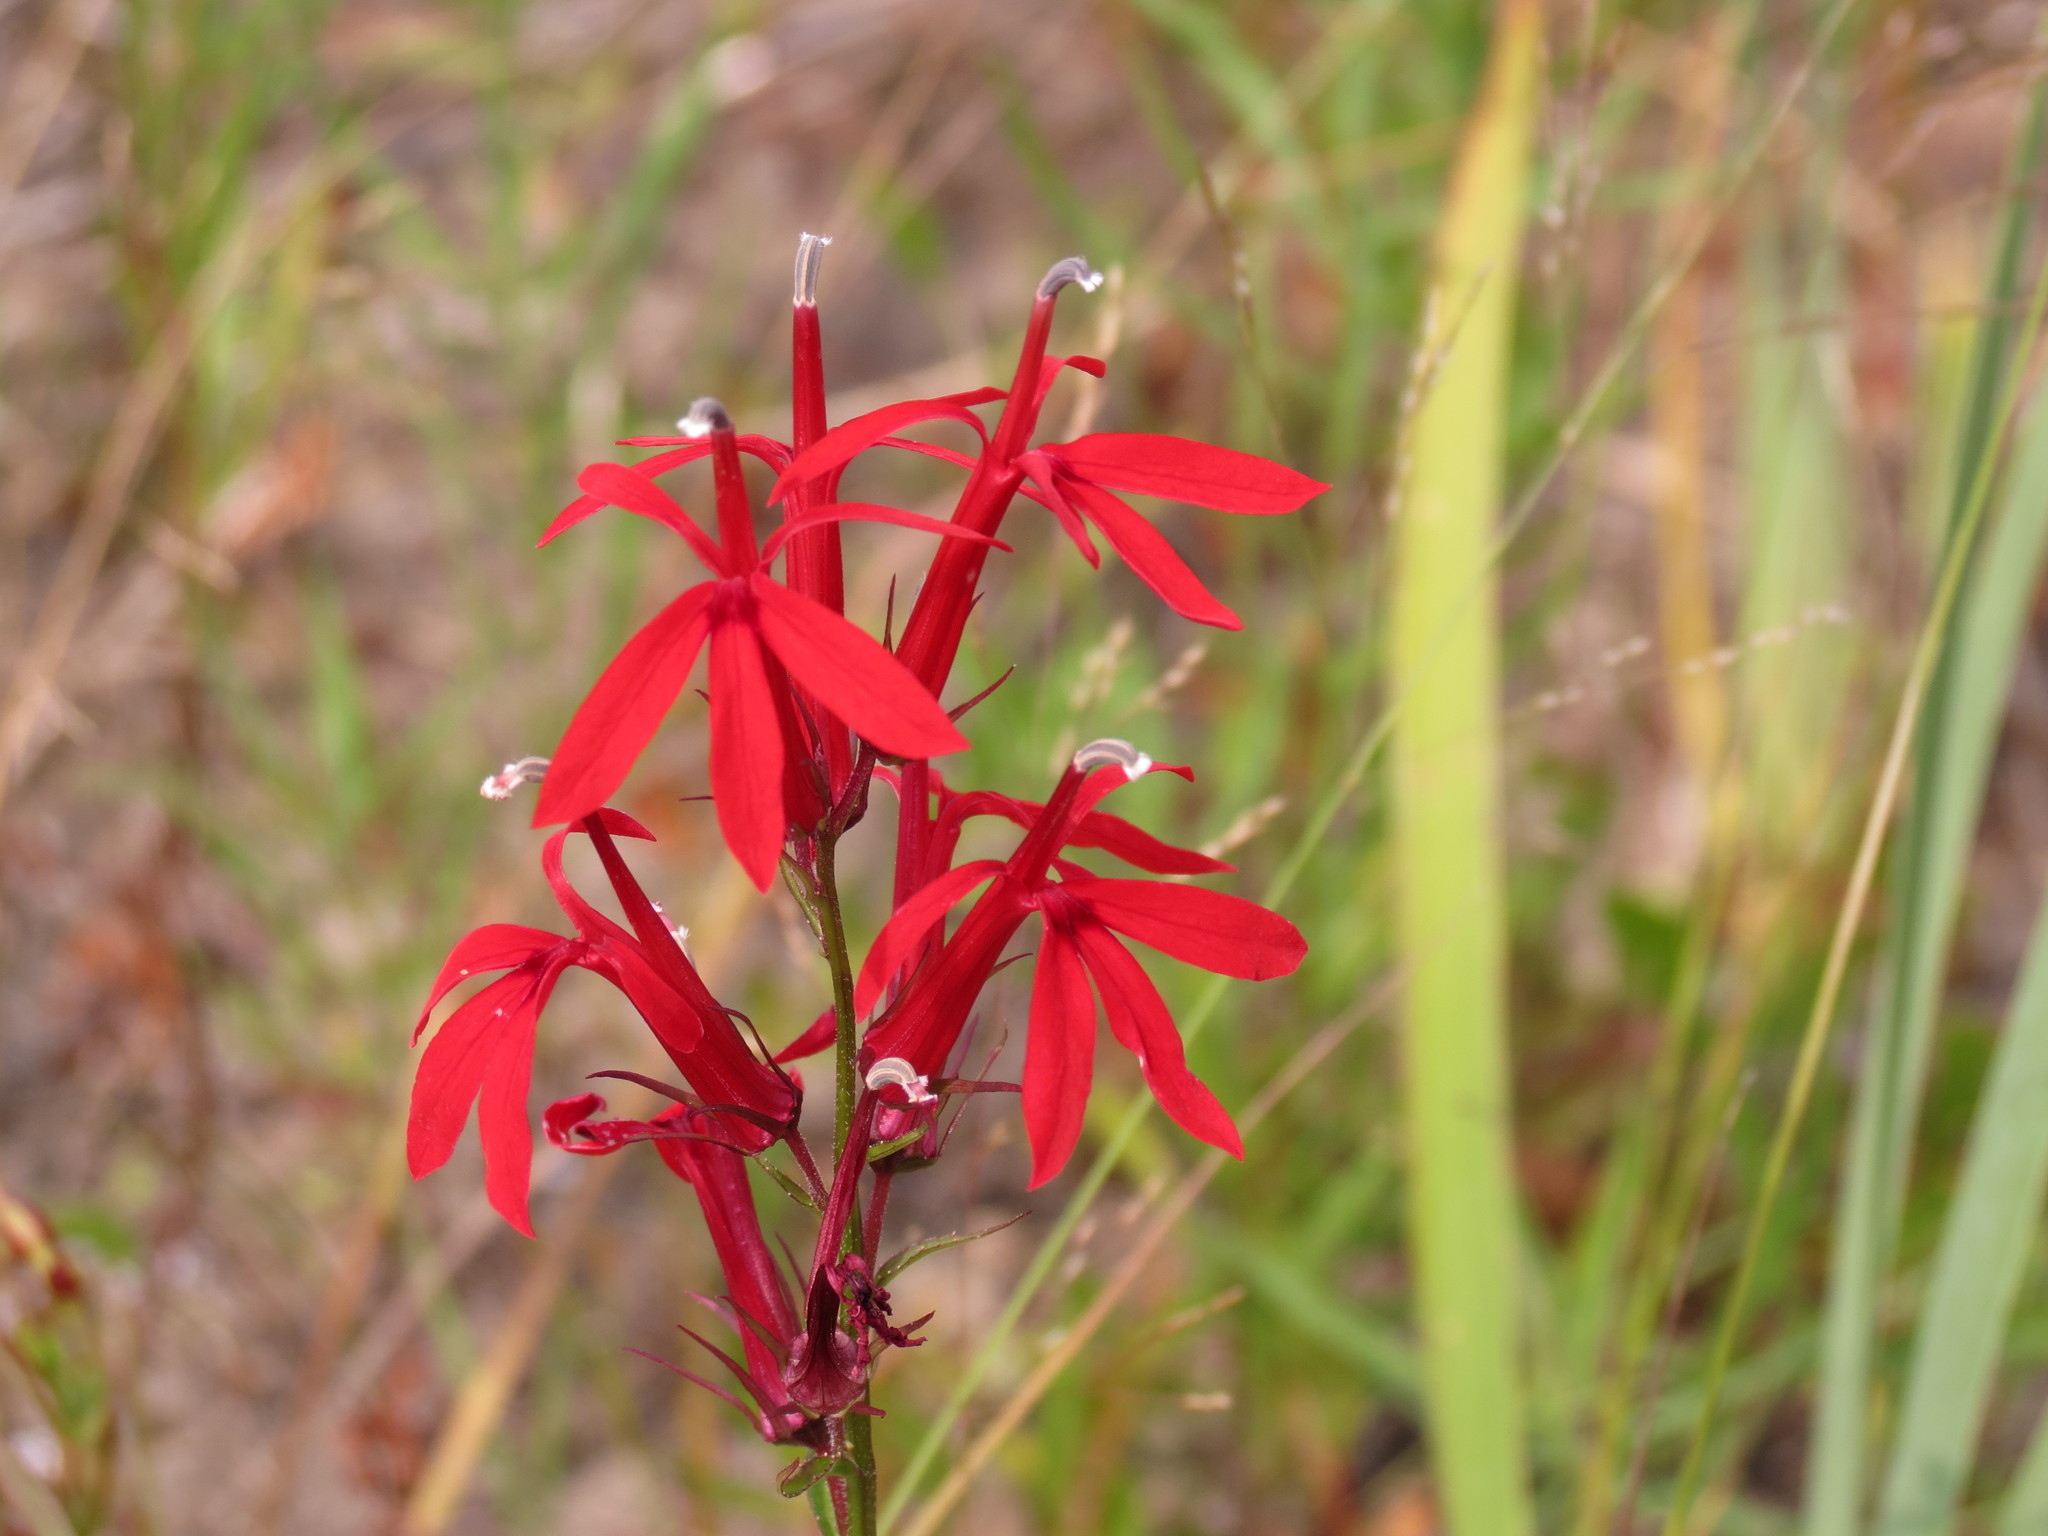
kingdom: Plantae
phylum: Tracheophyta
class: Magnoliopsida
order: Asterales
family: Campanulaceae
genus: Lobelia
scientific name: Lobelia cardinalis
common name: Cardinal flower
